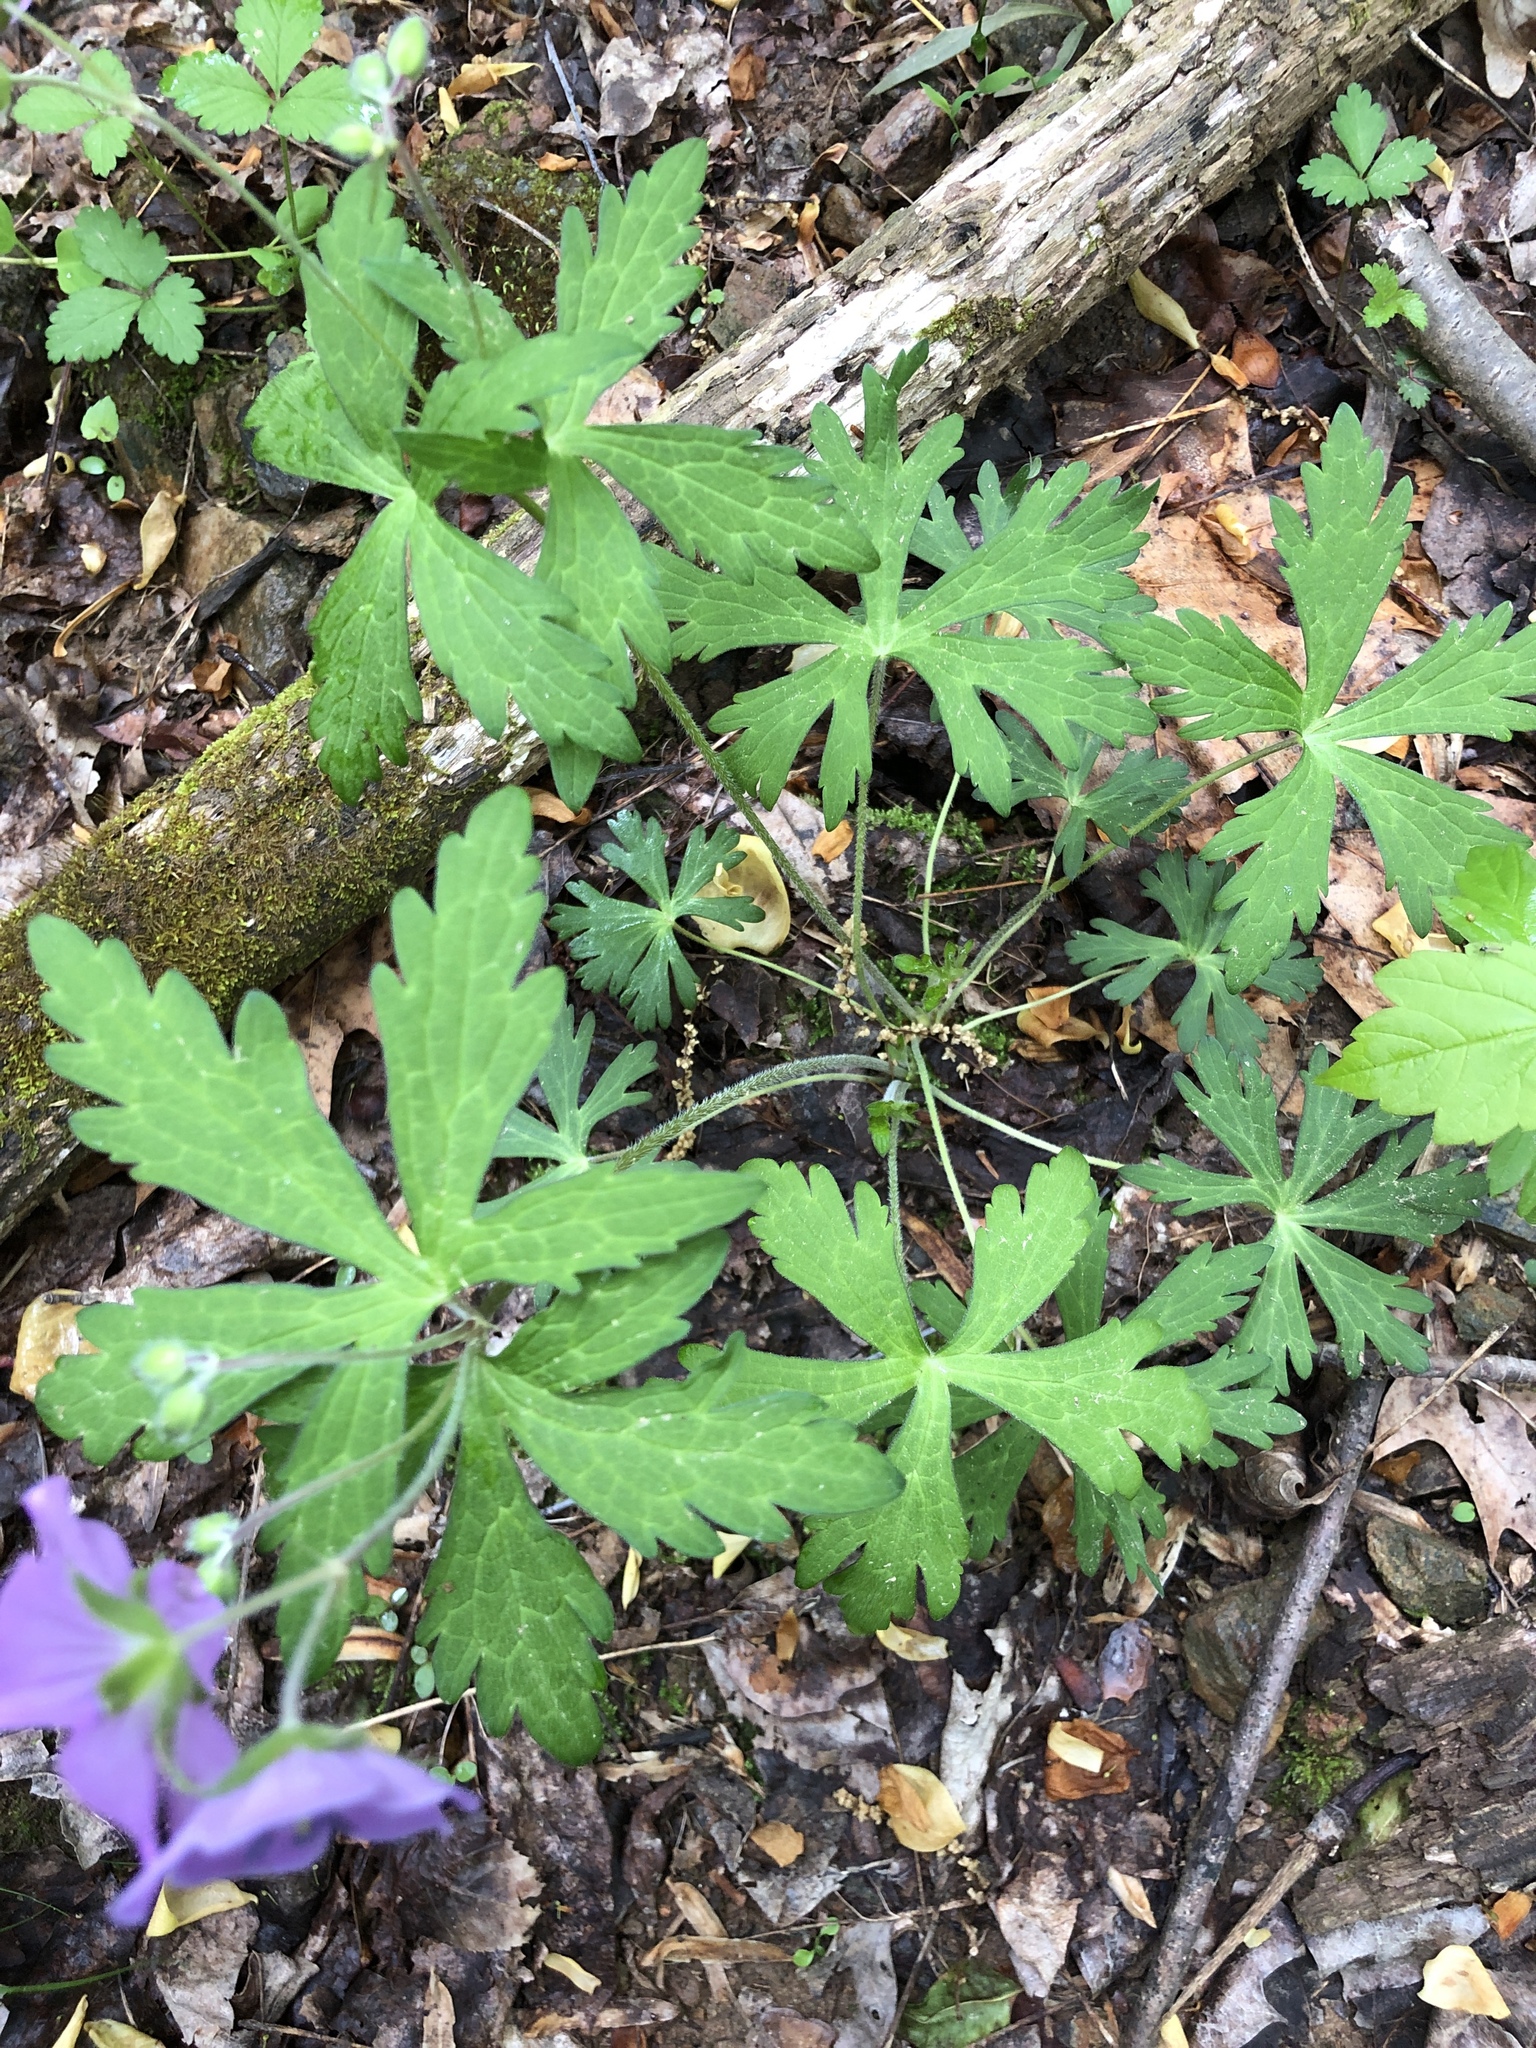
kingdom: Plantae
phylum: Tracheophyta
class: Magnoliopsida
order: Geraniales
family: Geraniaceae
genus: Geranium
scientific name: Geranium maculatum
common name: Spotted geranium
